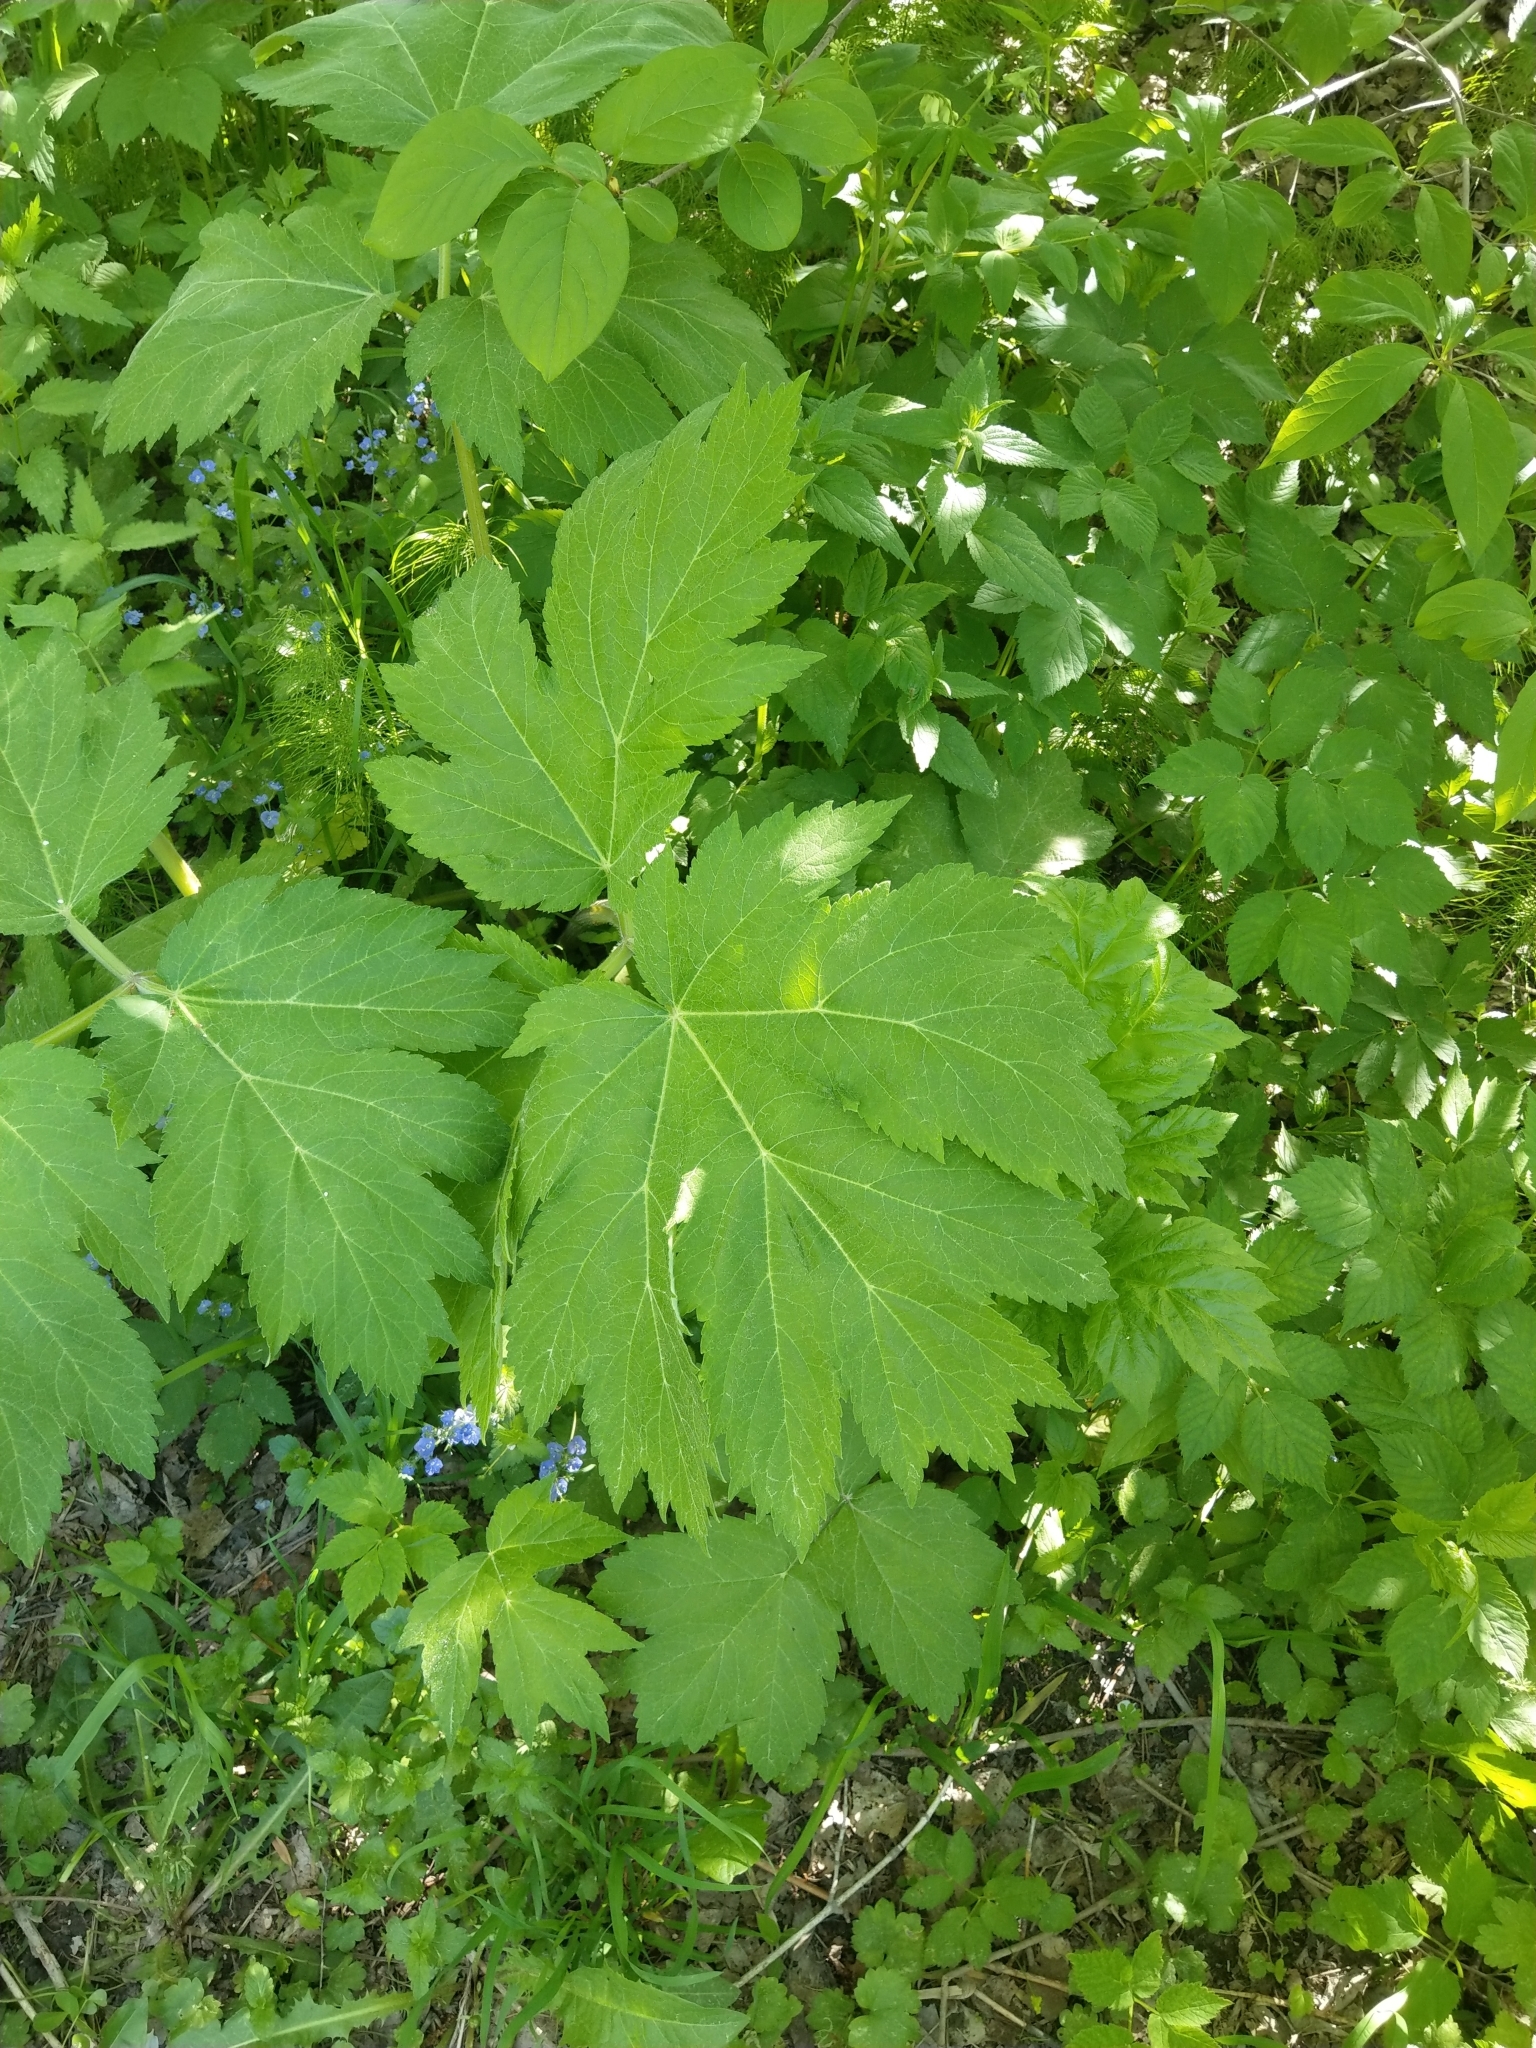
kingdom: Plantae
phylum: Tracheophyta
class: Magnoliopsida
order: Apiales
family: Apiaceae
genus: Heracleum
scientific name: Heracleum dissectum
